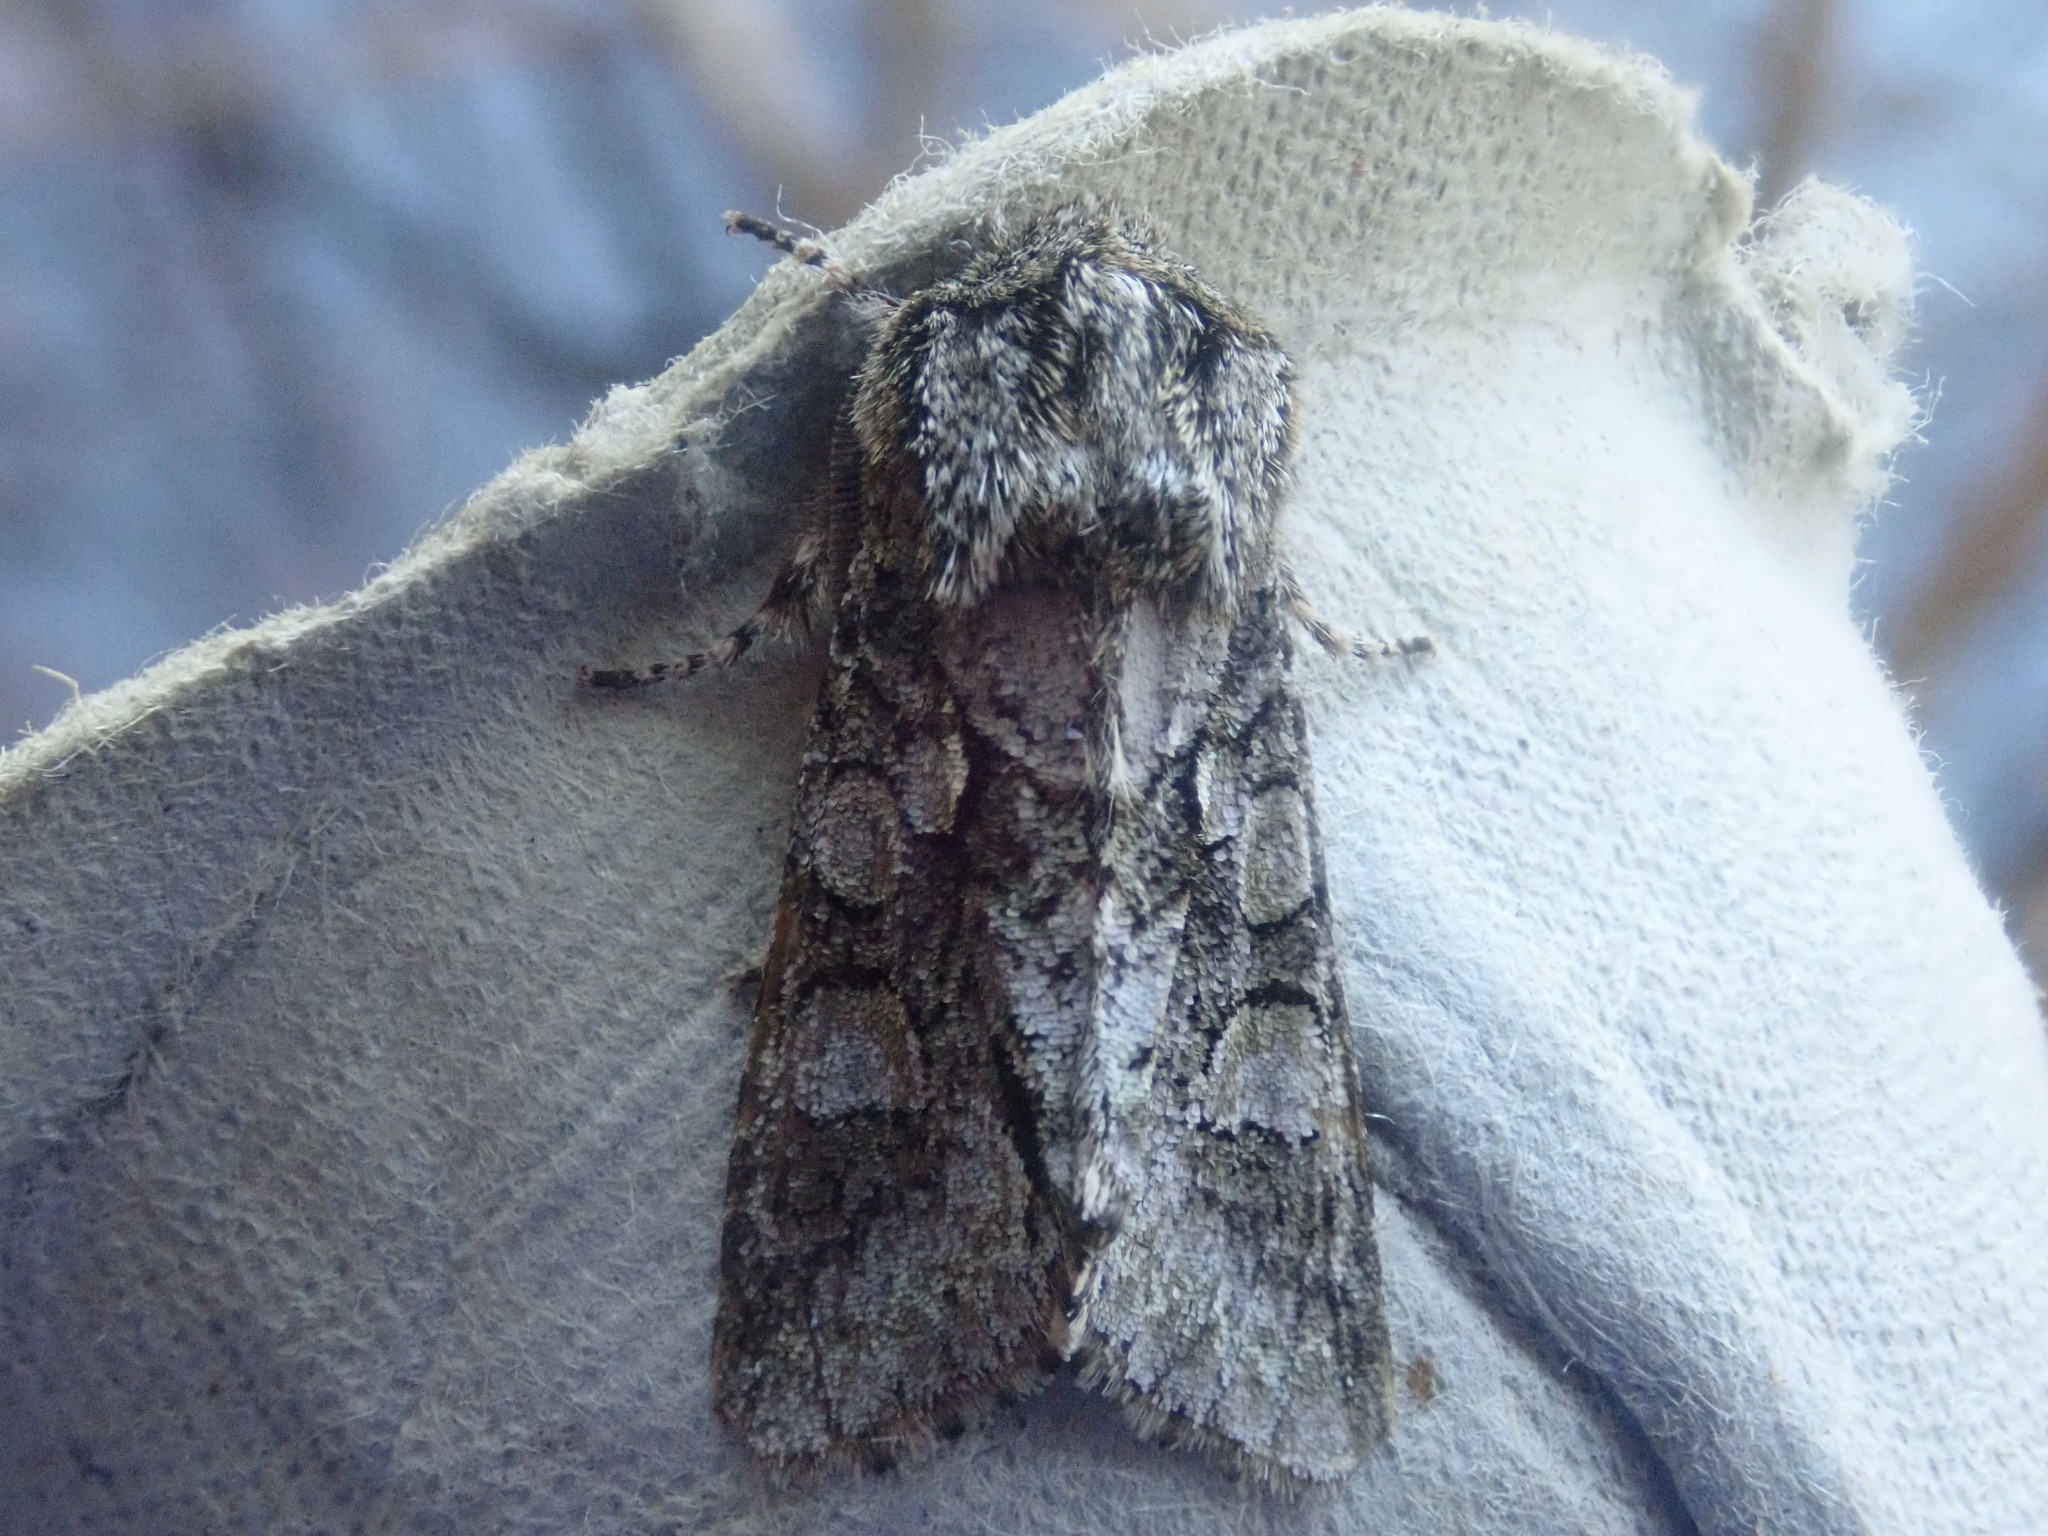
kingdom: Animalia
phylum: Arthropoda
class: Insecta
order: Lepidoptera
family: Noctuidae
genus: Psaphida
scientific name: Psaphida resumens
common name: Figure-eight sallow
